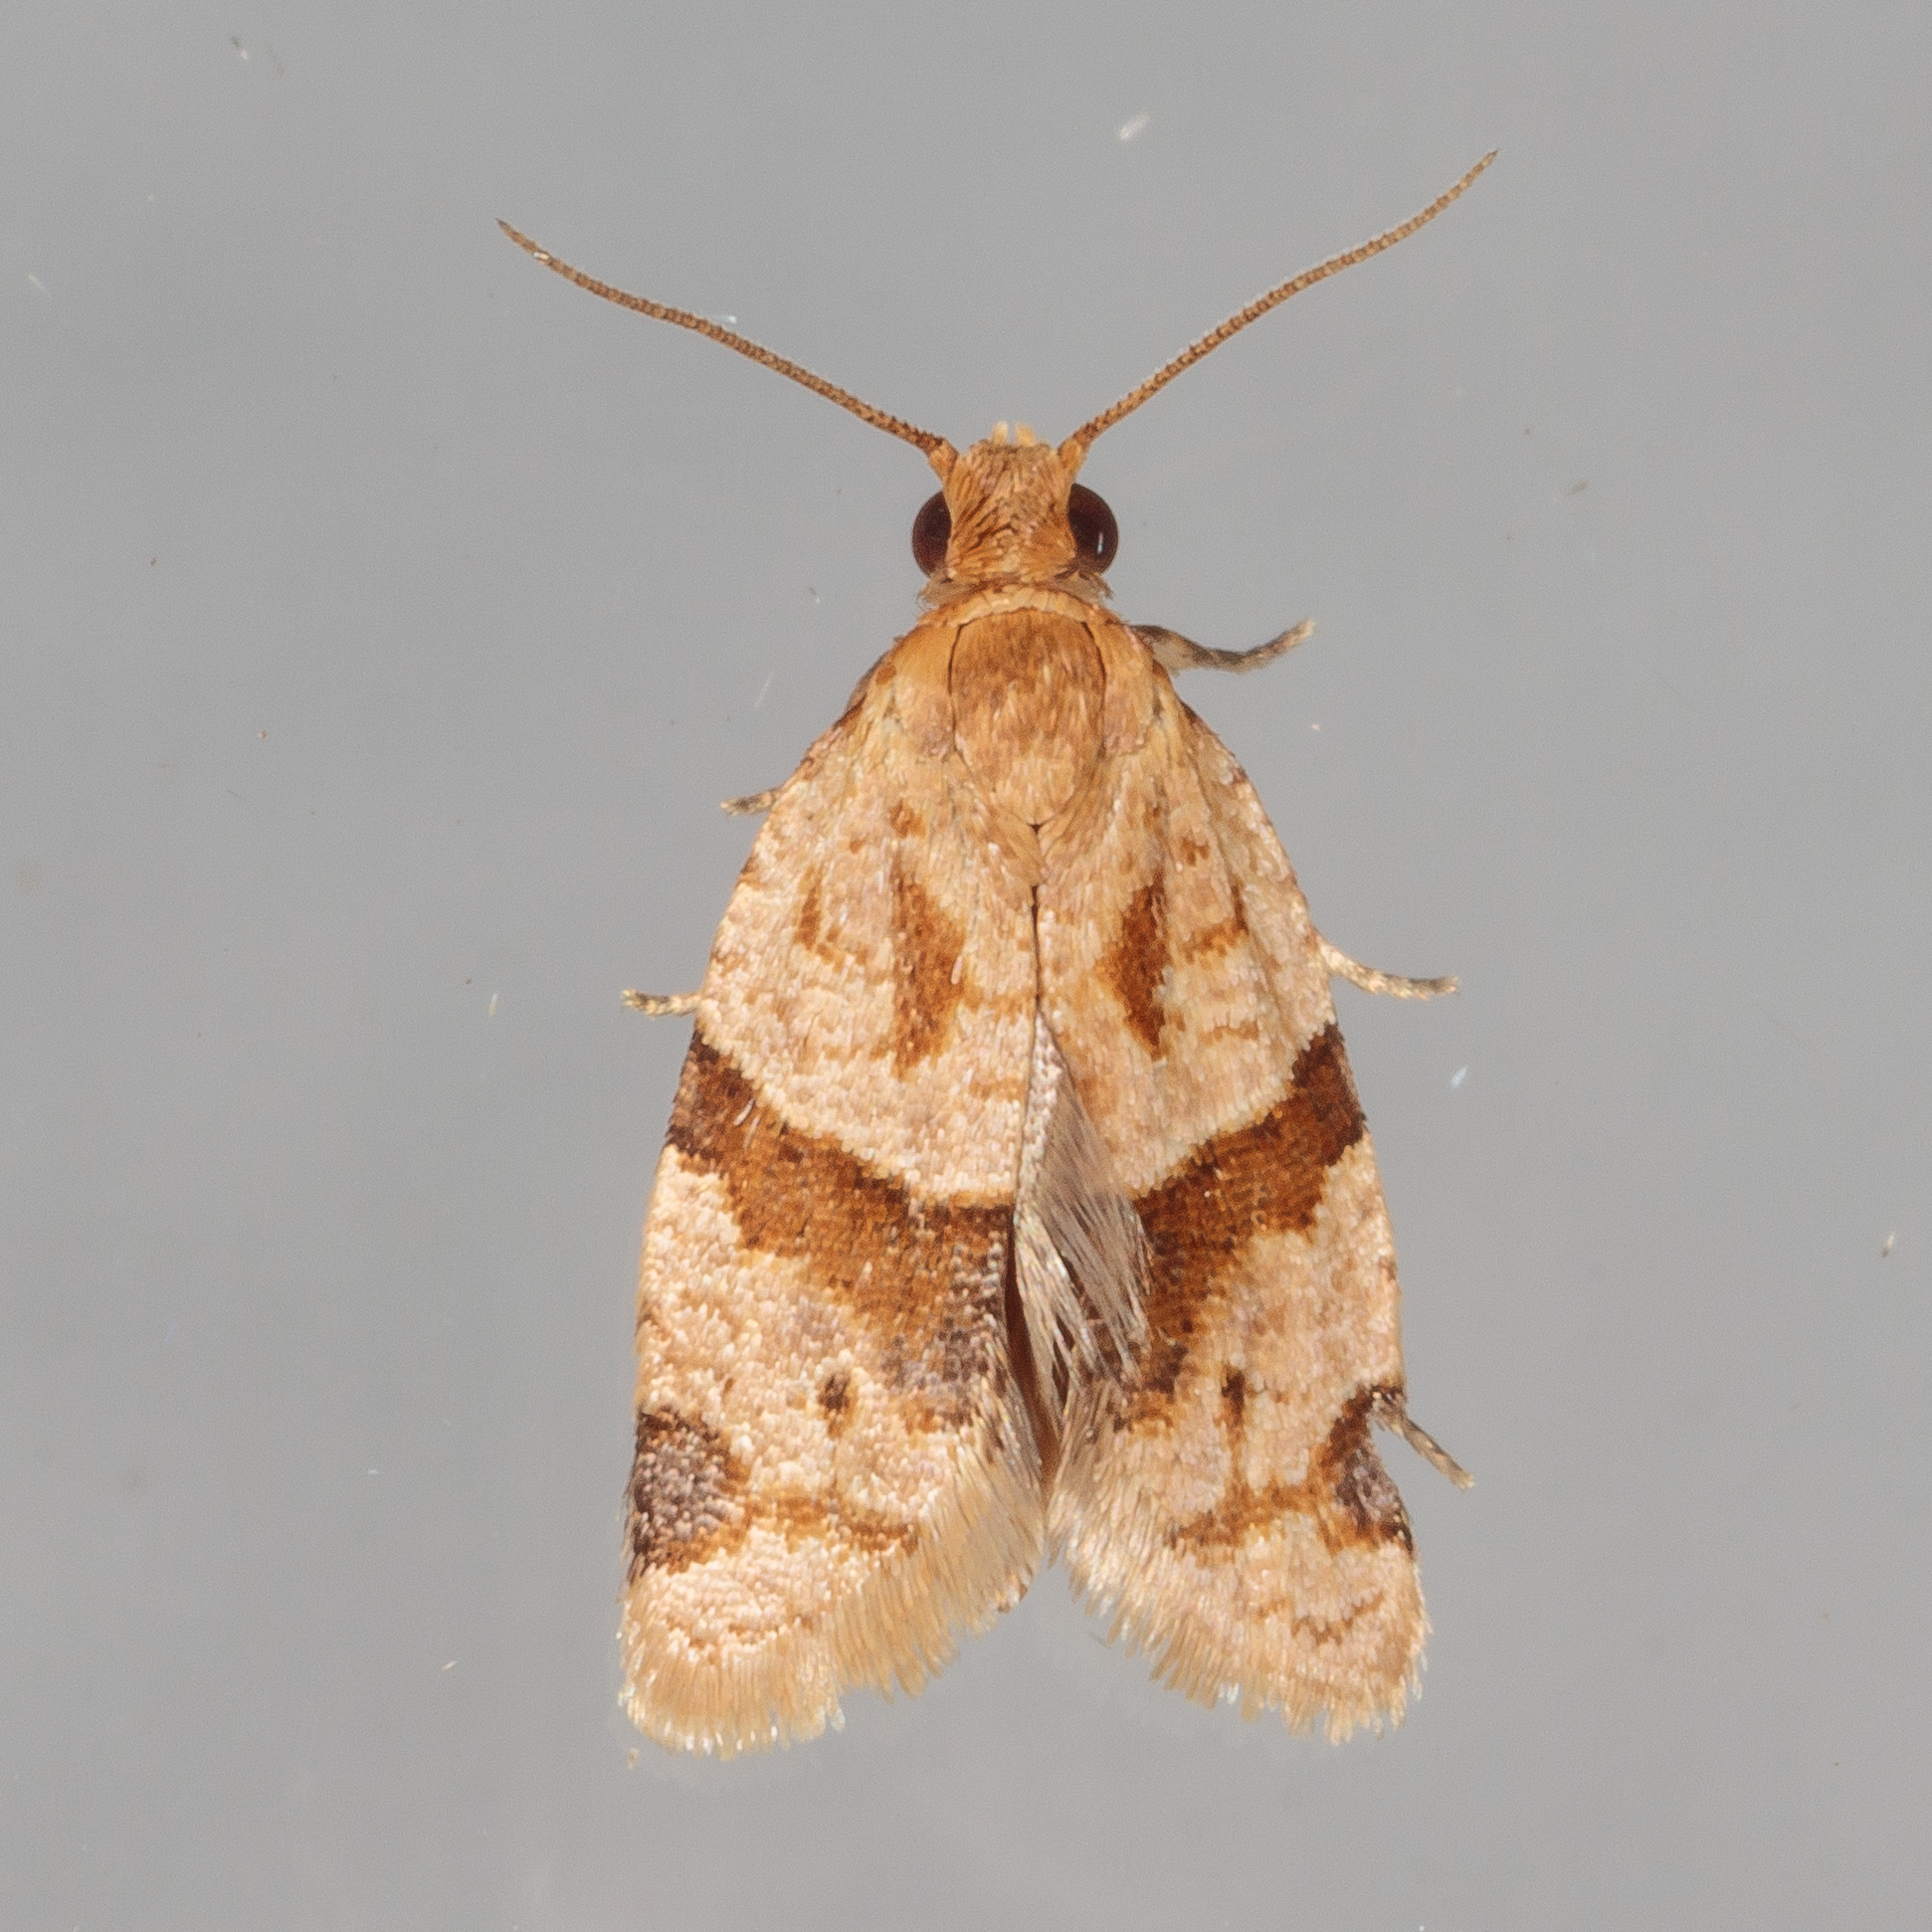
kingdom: Animalia
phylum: Arthropoda
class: Insecta
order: Lepidoptera
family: Tortricidae
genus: Clepsis
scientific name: Clepsis peritana
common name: Garden tortrix
